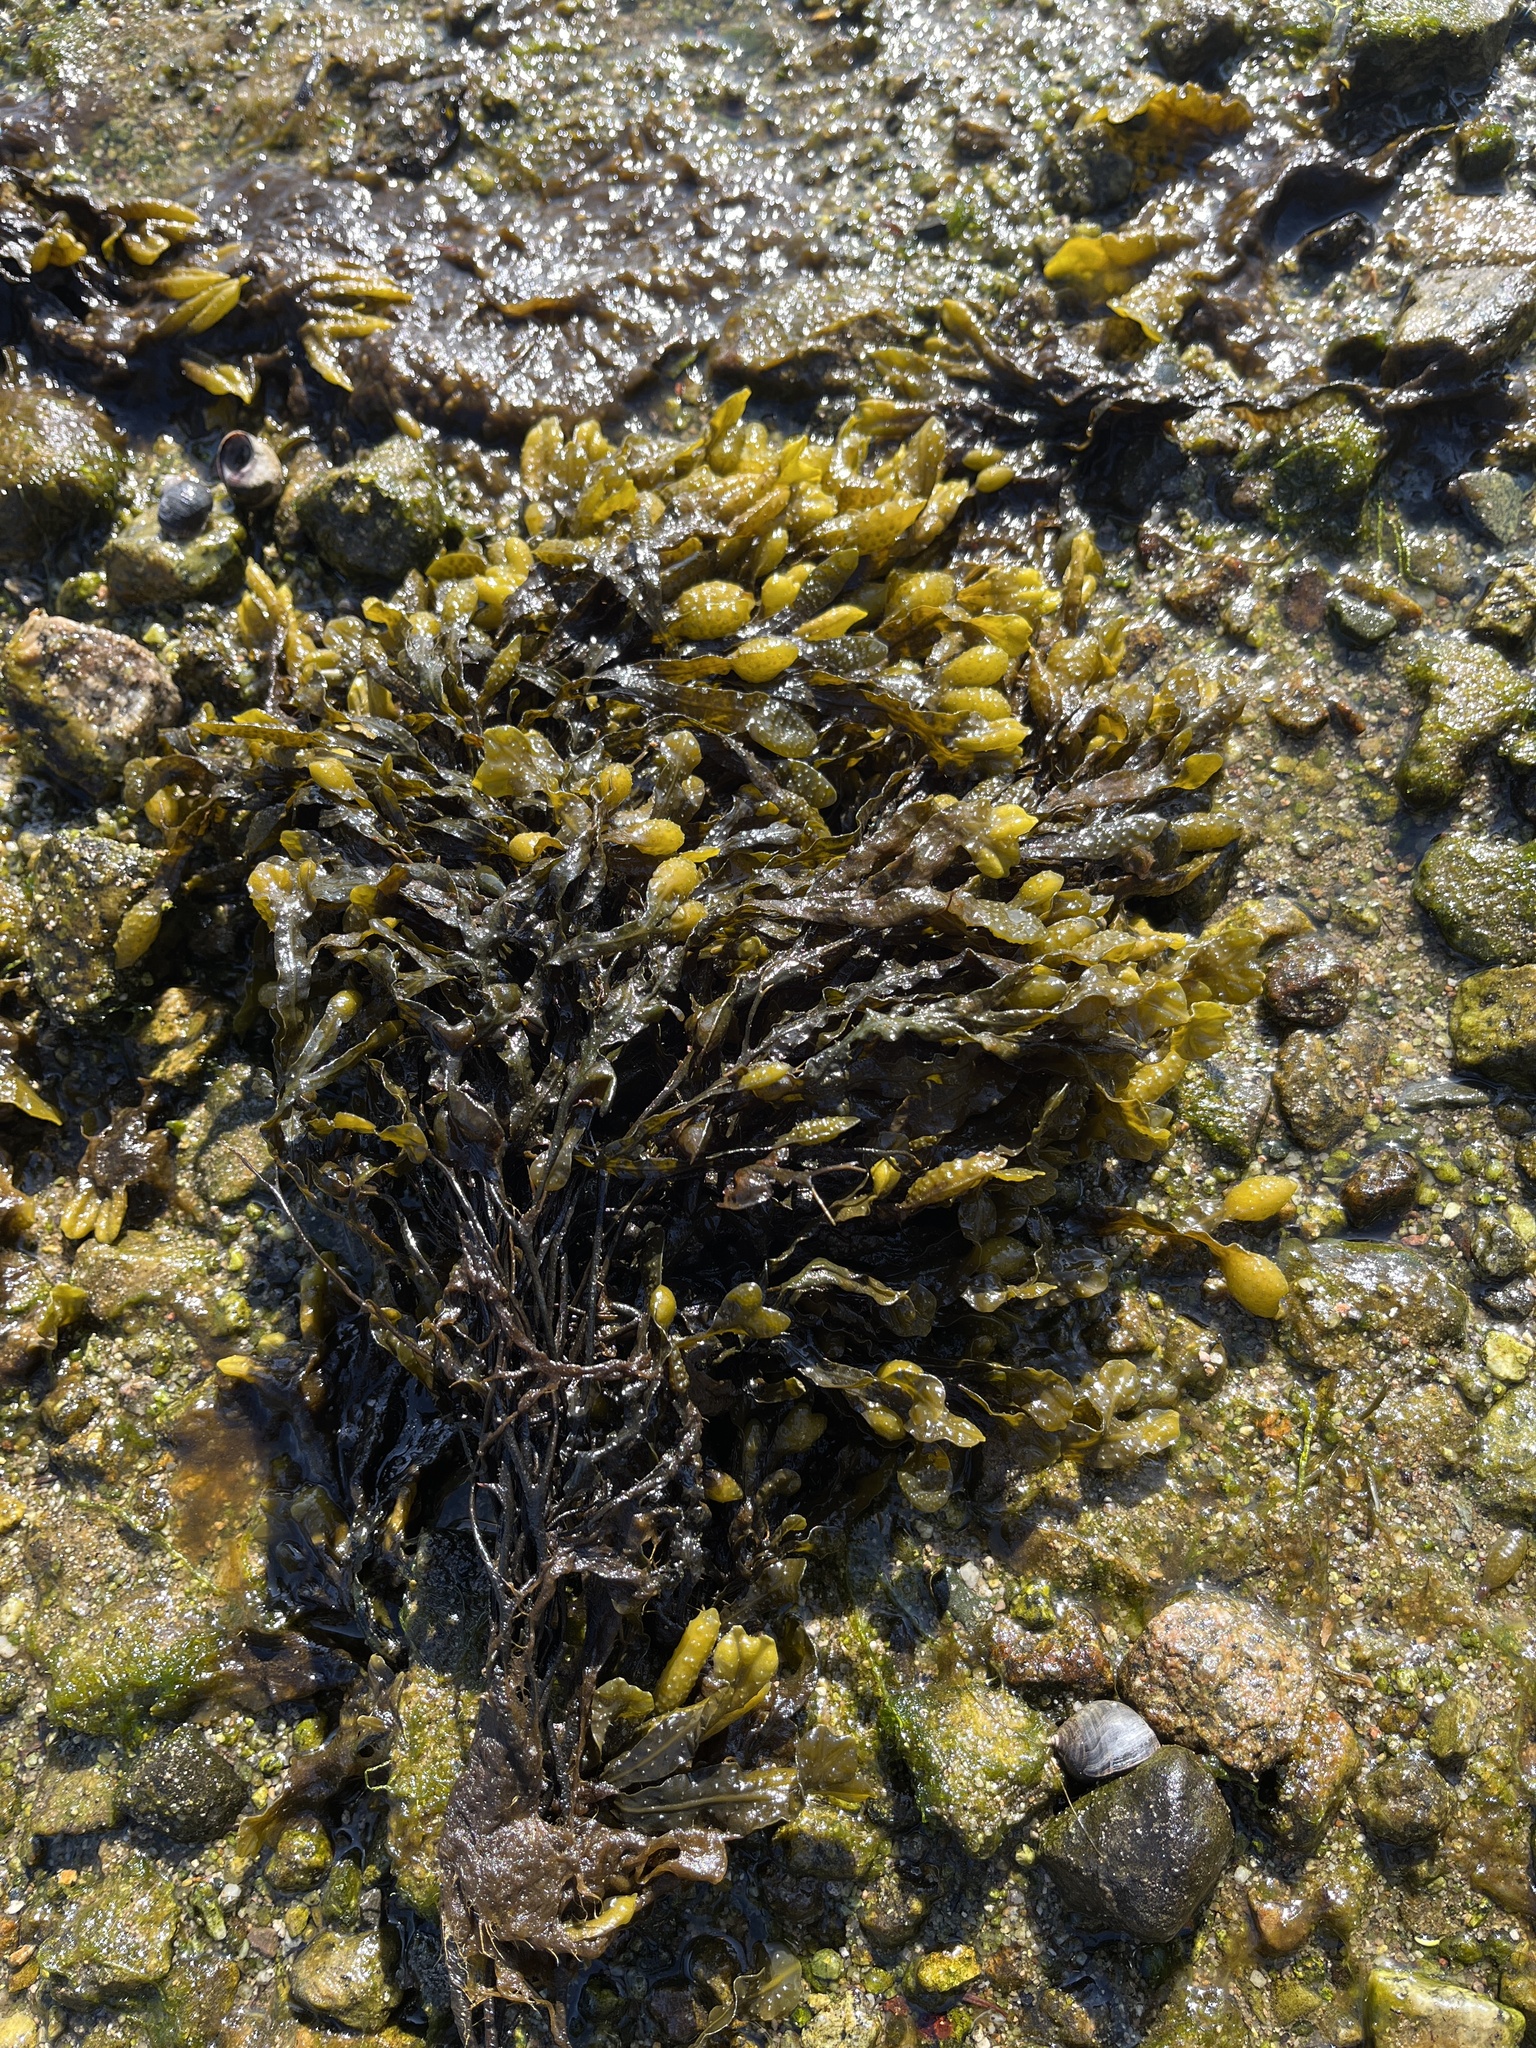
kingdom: Chromista
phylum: Ochrophyta
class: Phaeophyceae
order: Fucales
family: Fucaceae
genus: Fucus
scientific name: Fucus spiralis
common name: Spiral wrack
